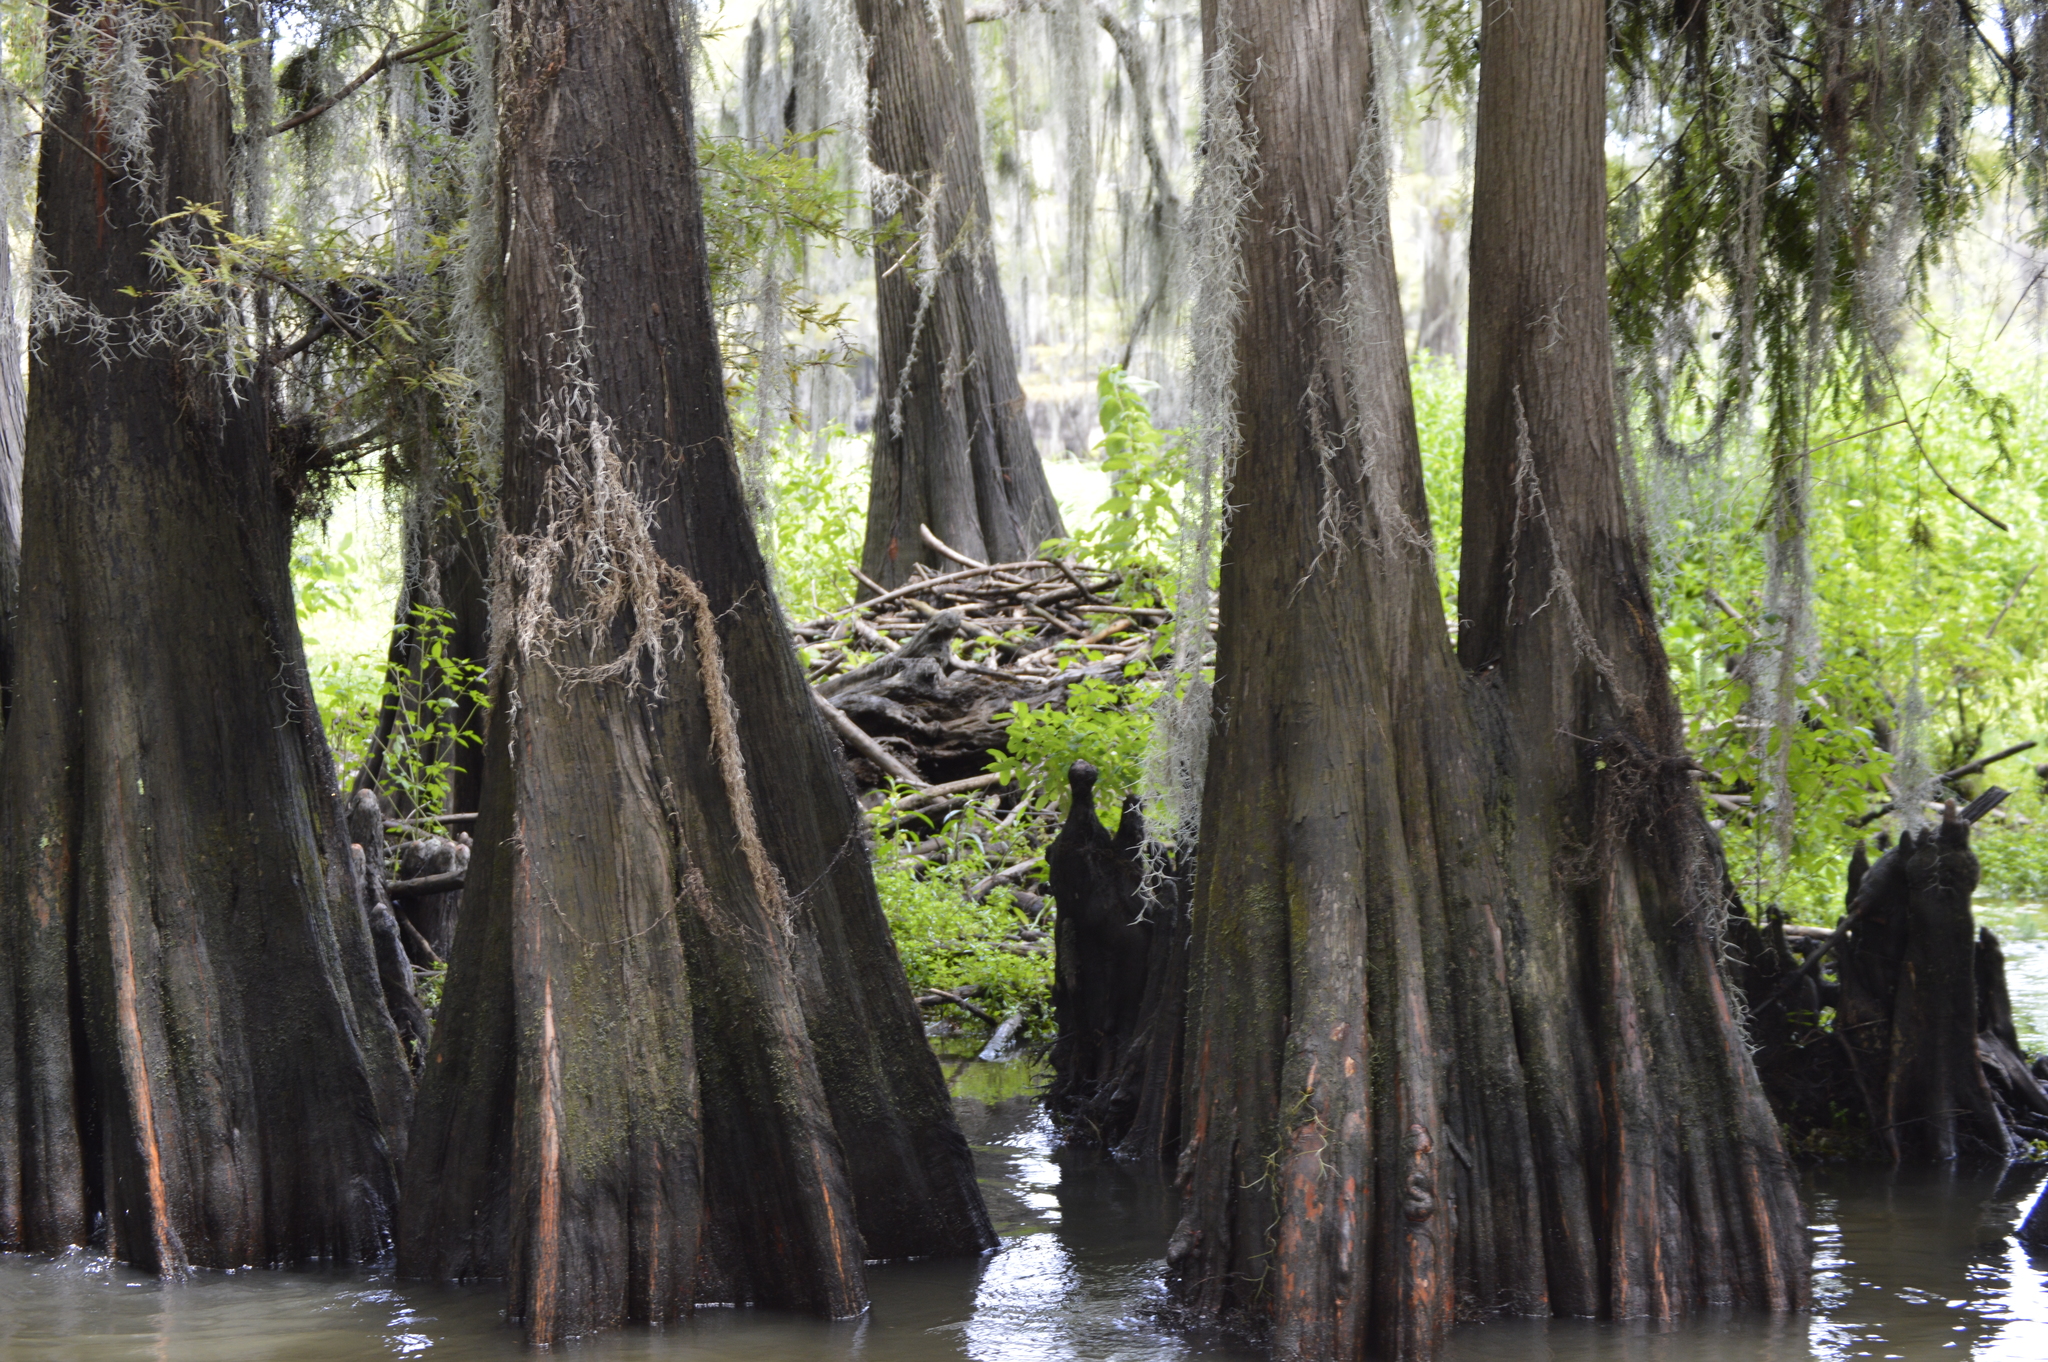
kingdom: Animalia
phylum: Chordata
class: Mammalia
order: Rodentia
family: Castoridae
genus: Castor
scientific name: Castor canadensis
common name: American beaver
